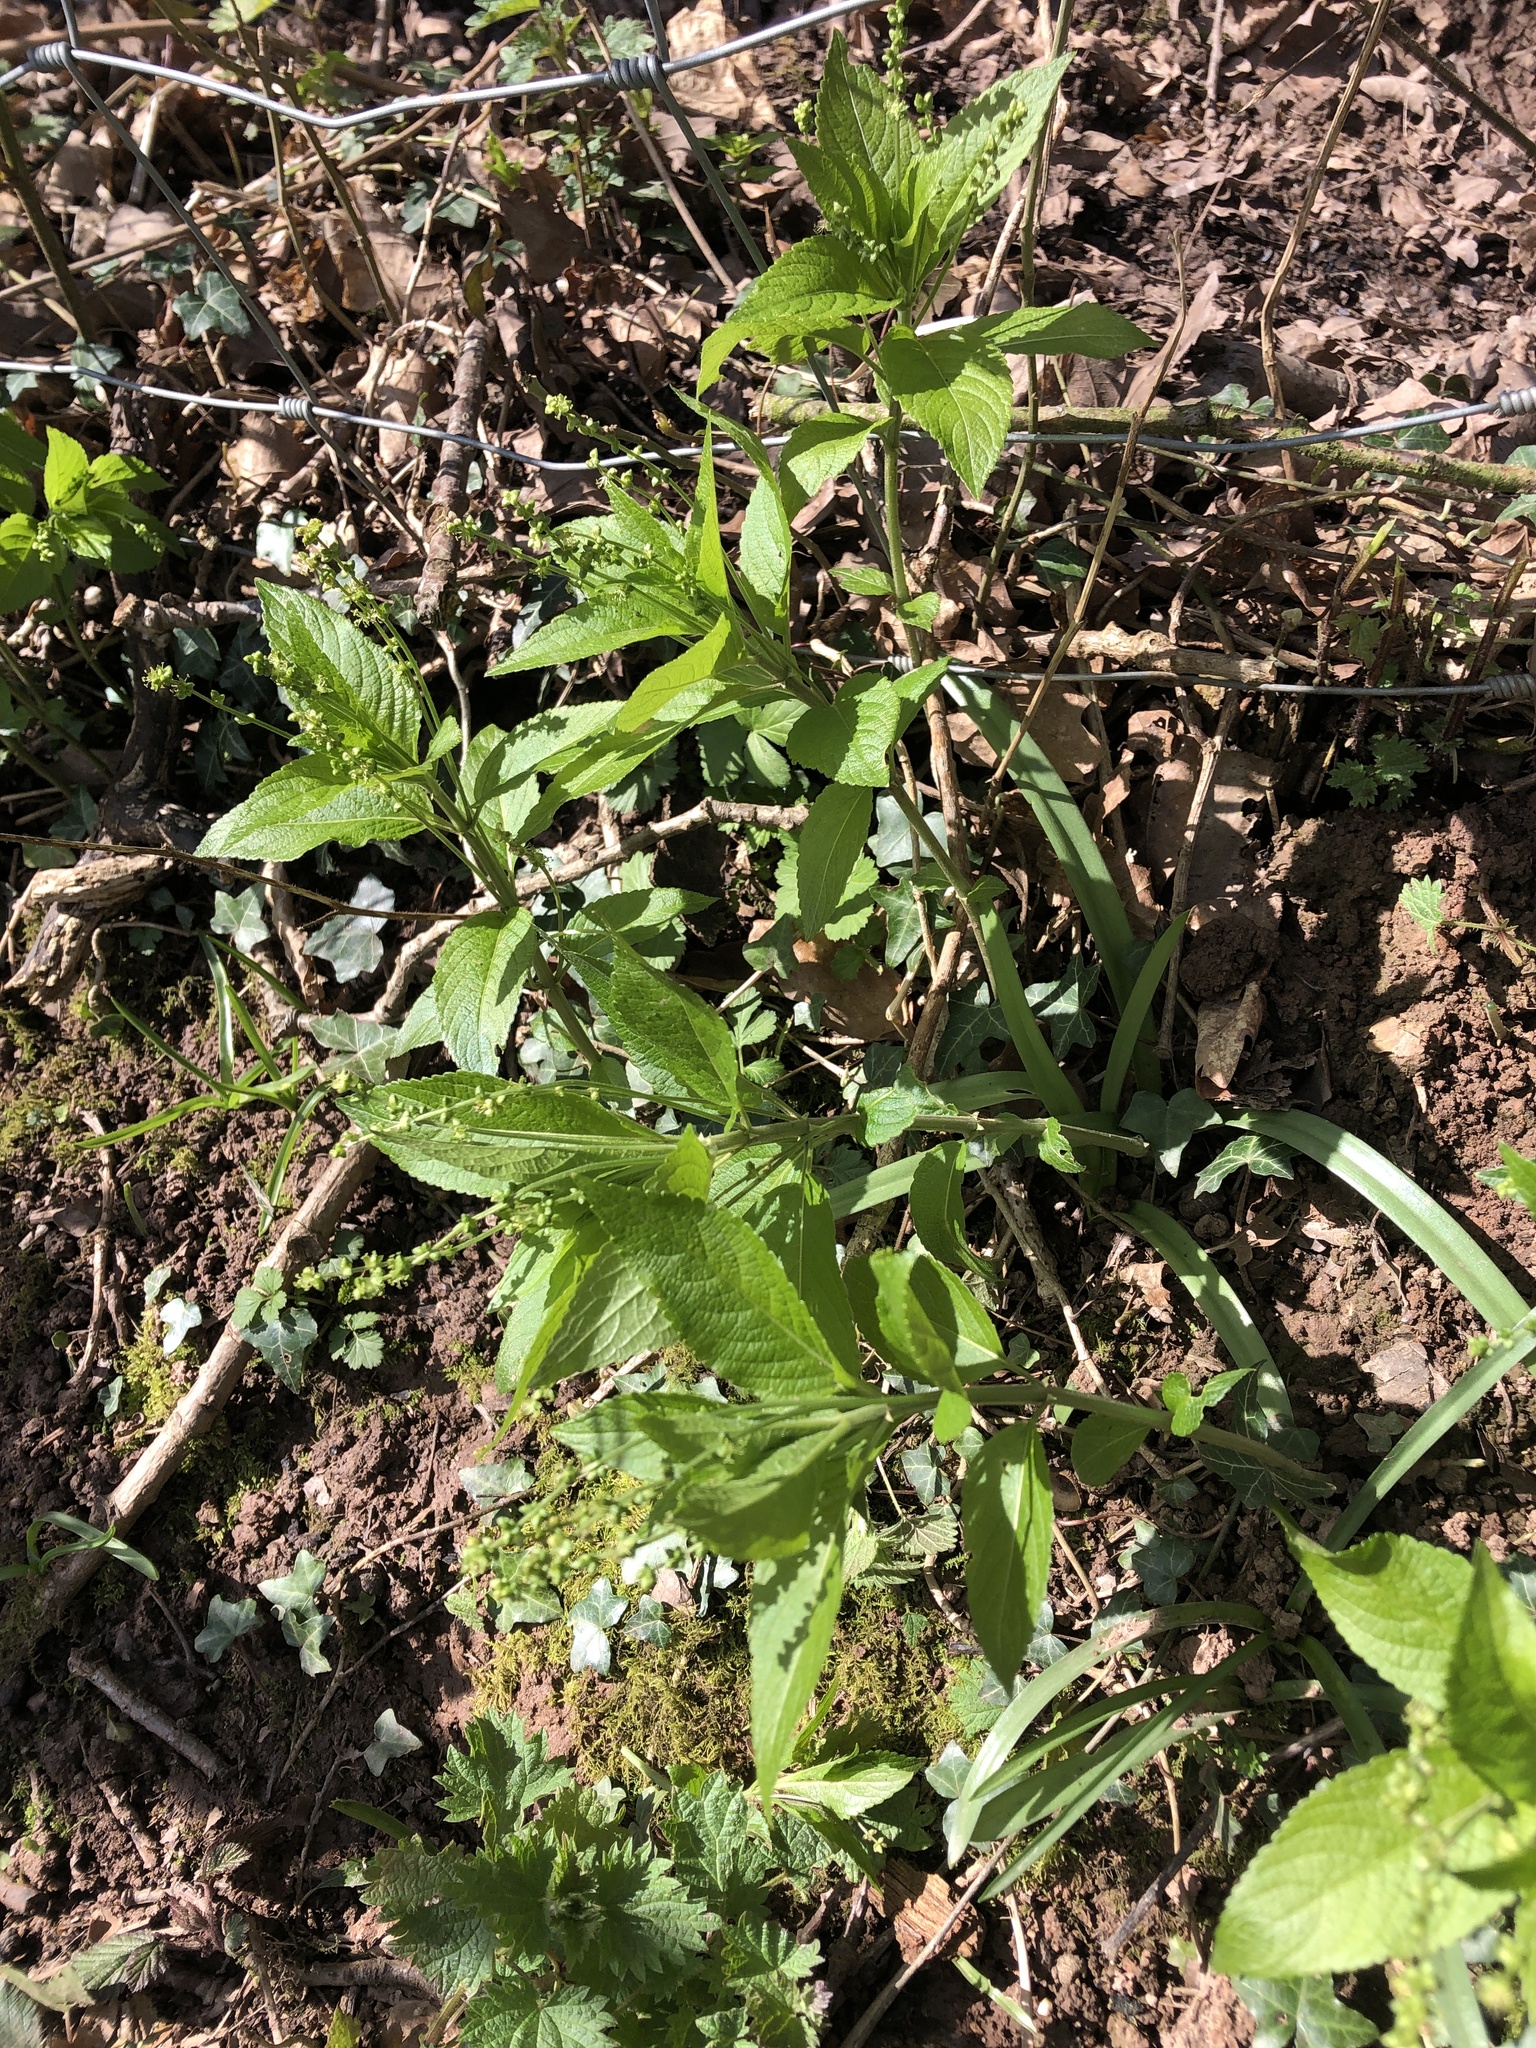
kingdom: Plantae
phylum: Tracheophyta
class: Magnoliopsida
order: Malpighiales
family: Euphorbiaceae
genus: Mercurialis
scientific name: Mercurialis perennis
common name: Dog mercury
